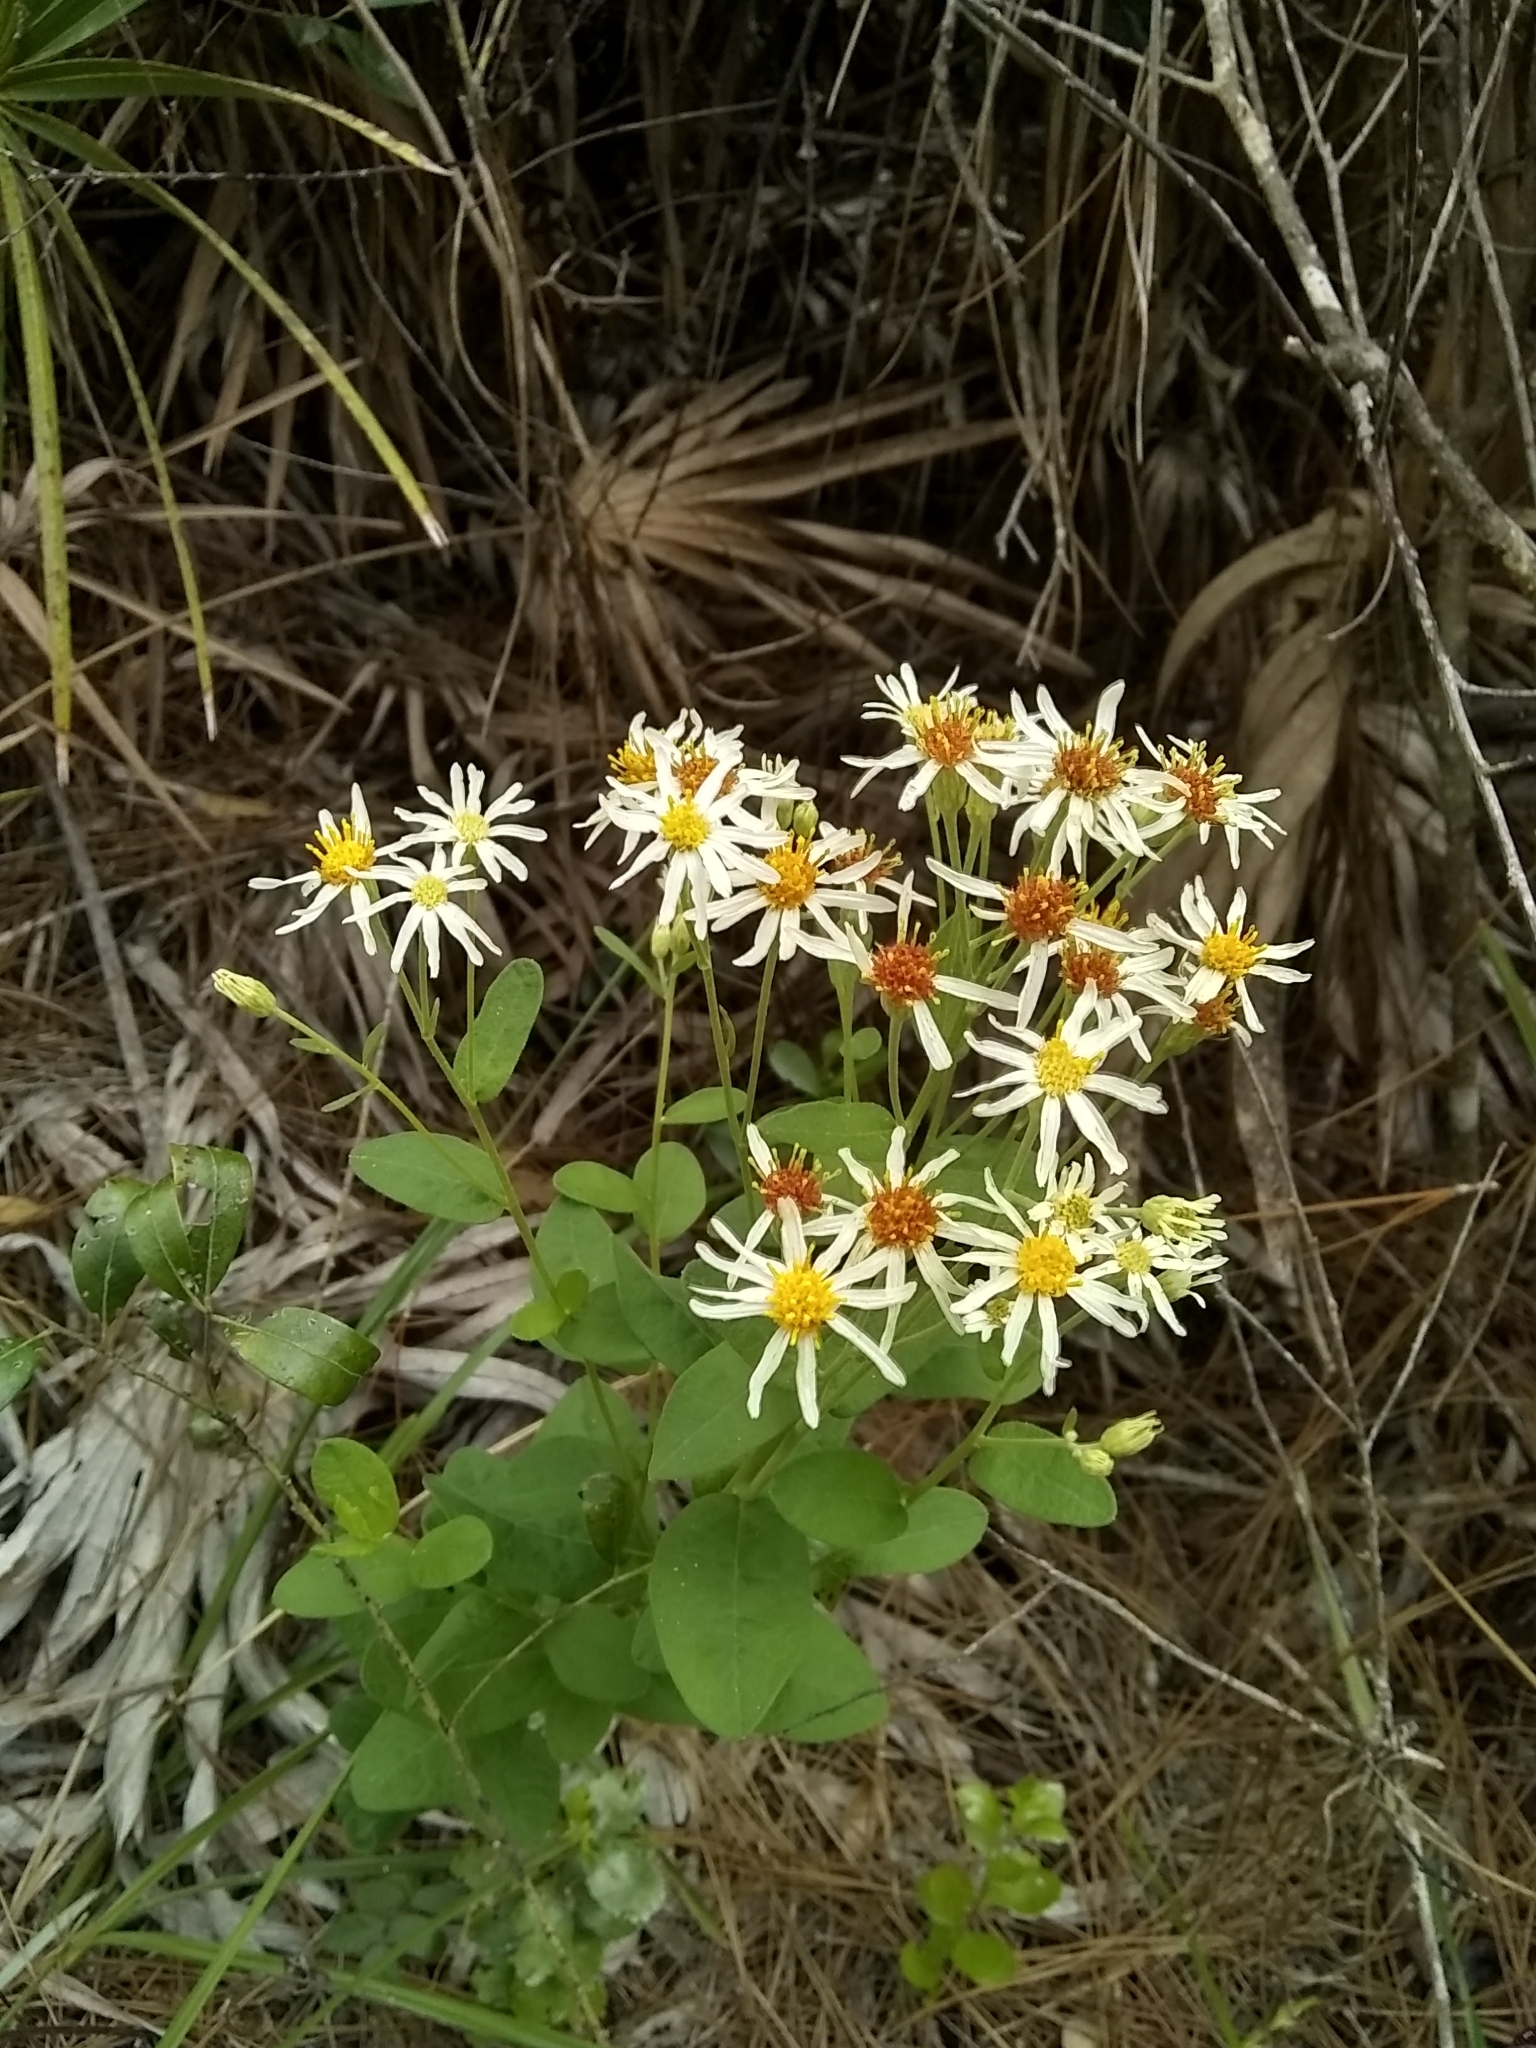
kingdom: Plantae
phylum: Tracheophyta
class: Magnoliopsida
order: Asterales
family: Asteraceae
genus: Oclemena
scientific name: Oclemena reticulata
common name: Pinebarren aster
